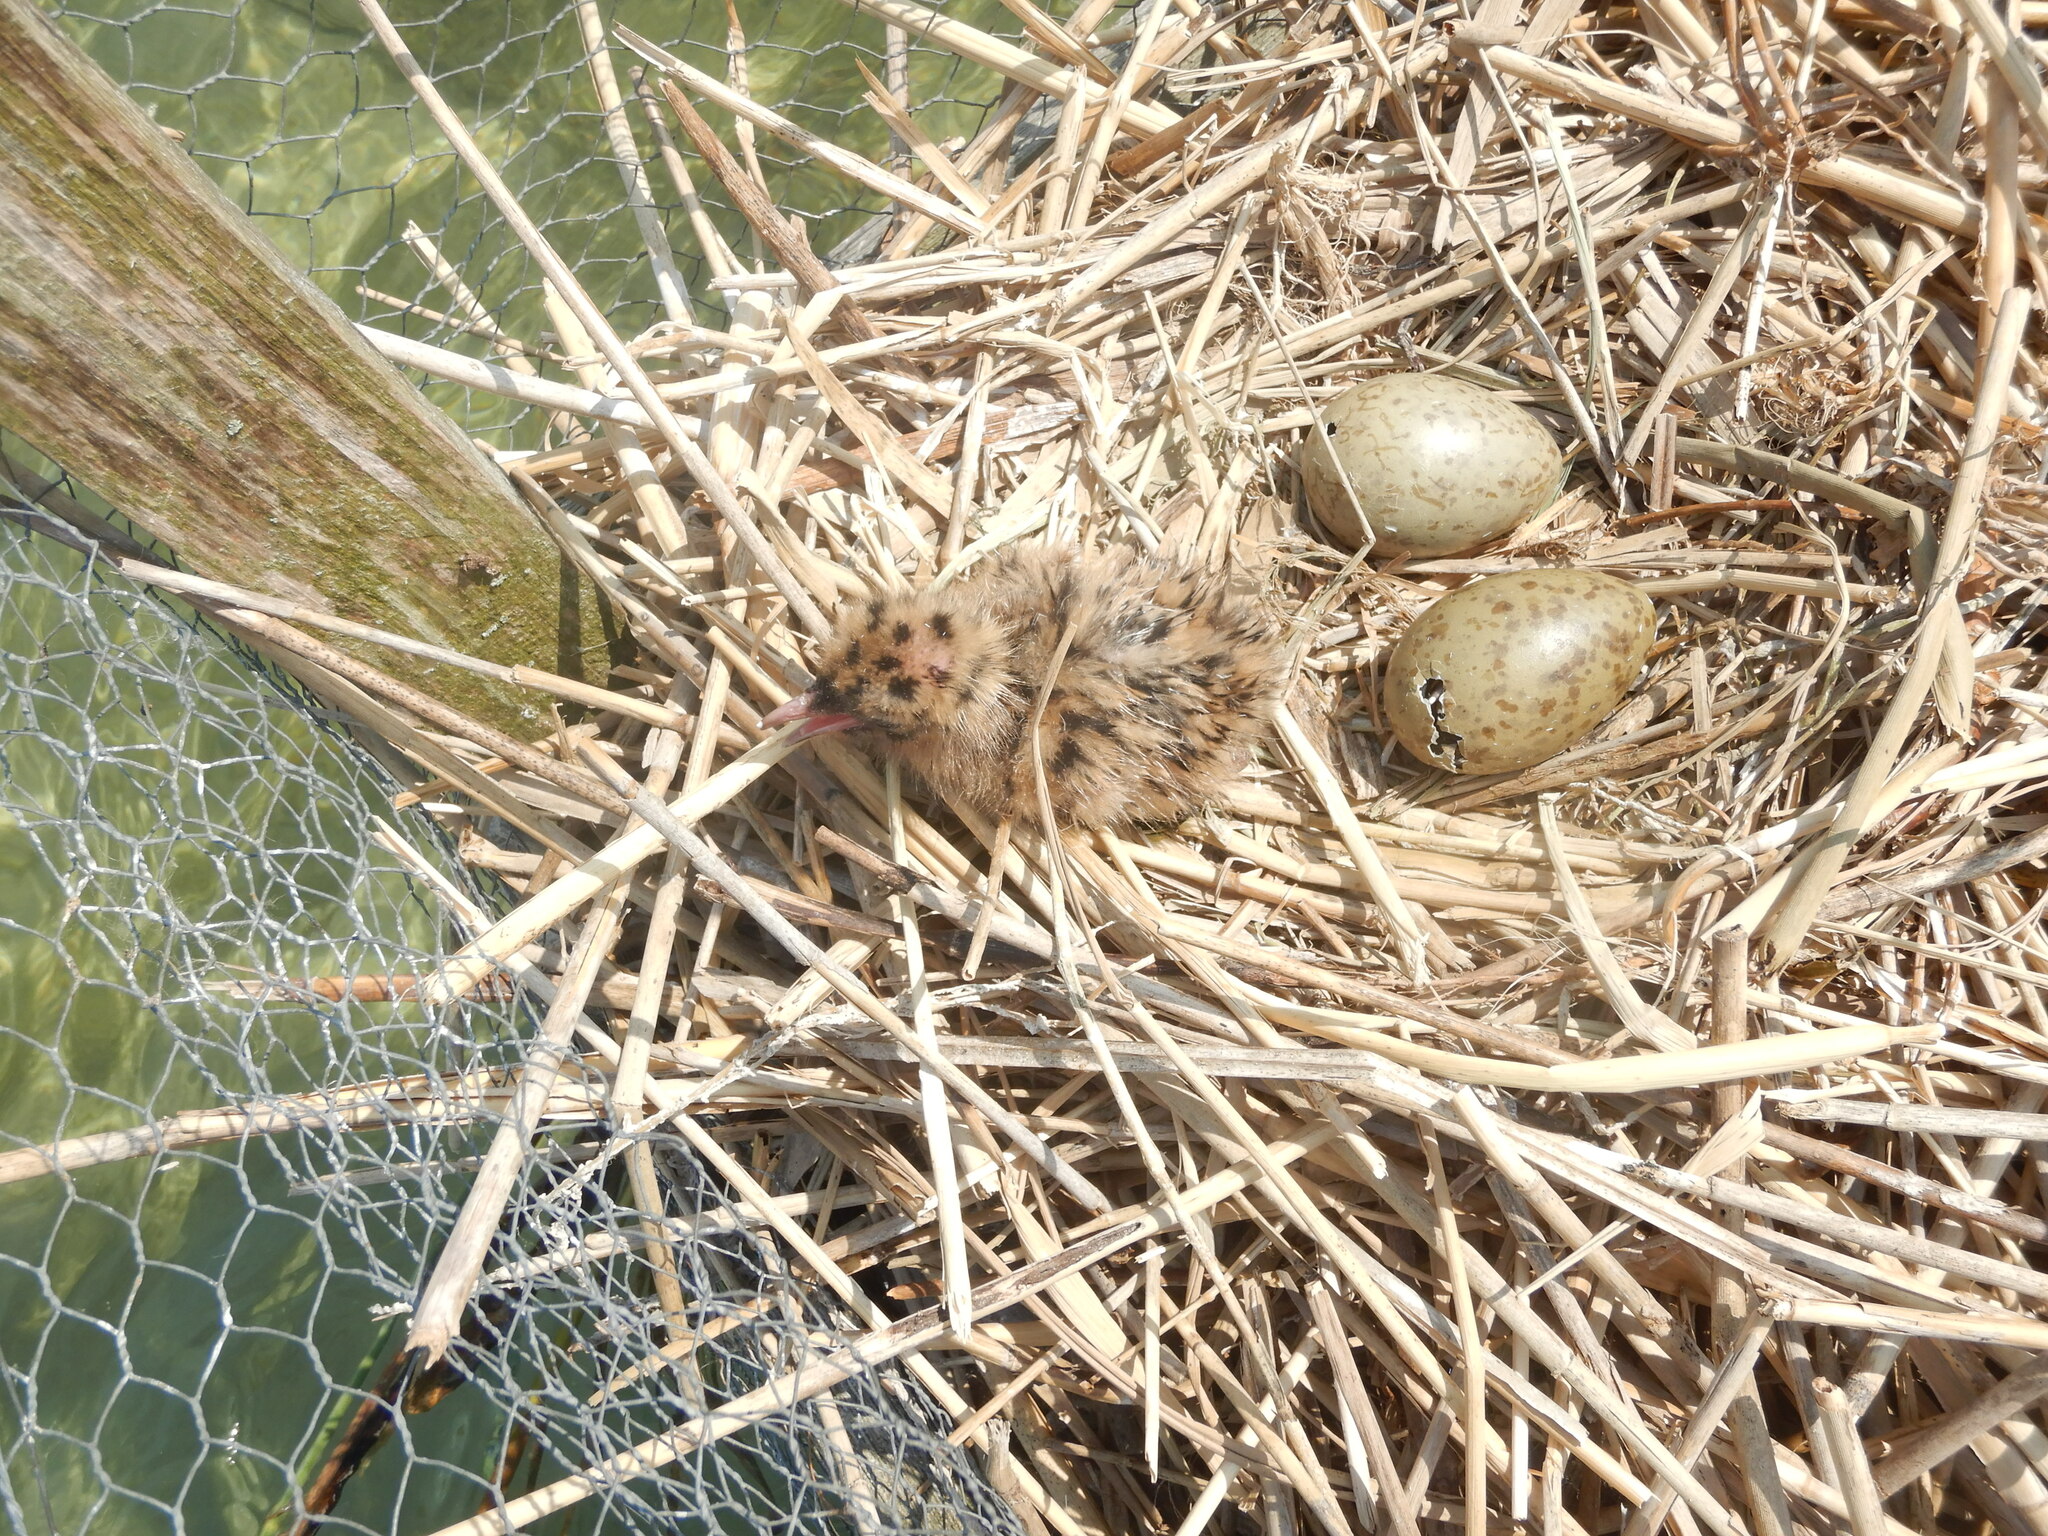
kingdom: Animalia
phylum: Chordata
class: Aves
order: Charadriiformes
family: Laridae
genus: Chroicocephalus
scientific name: Chroicocephalus ridibundus
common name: Black-headed gull
